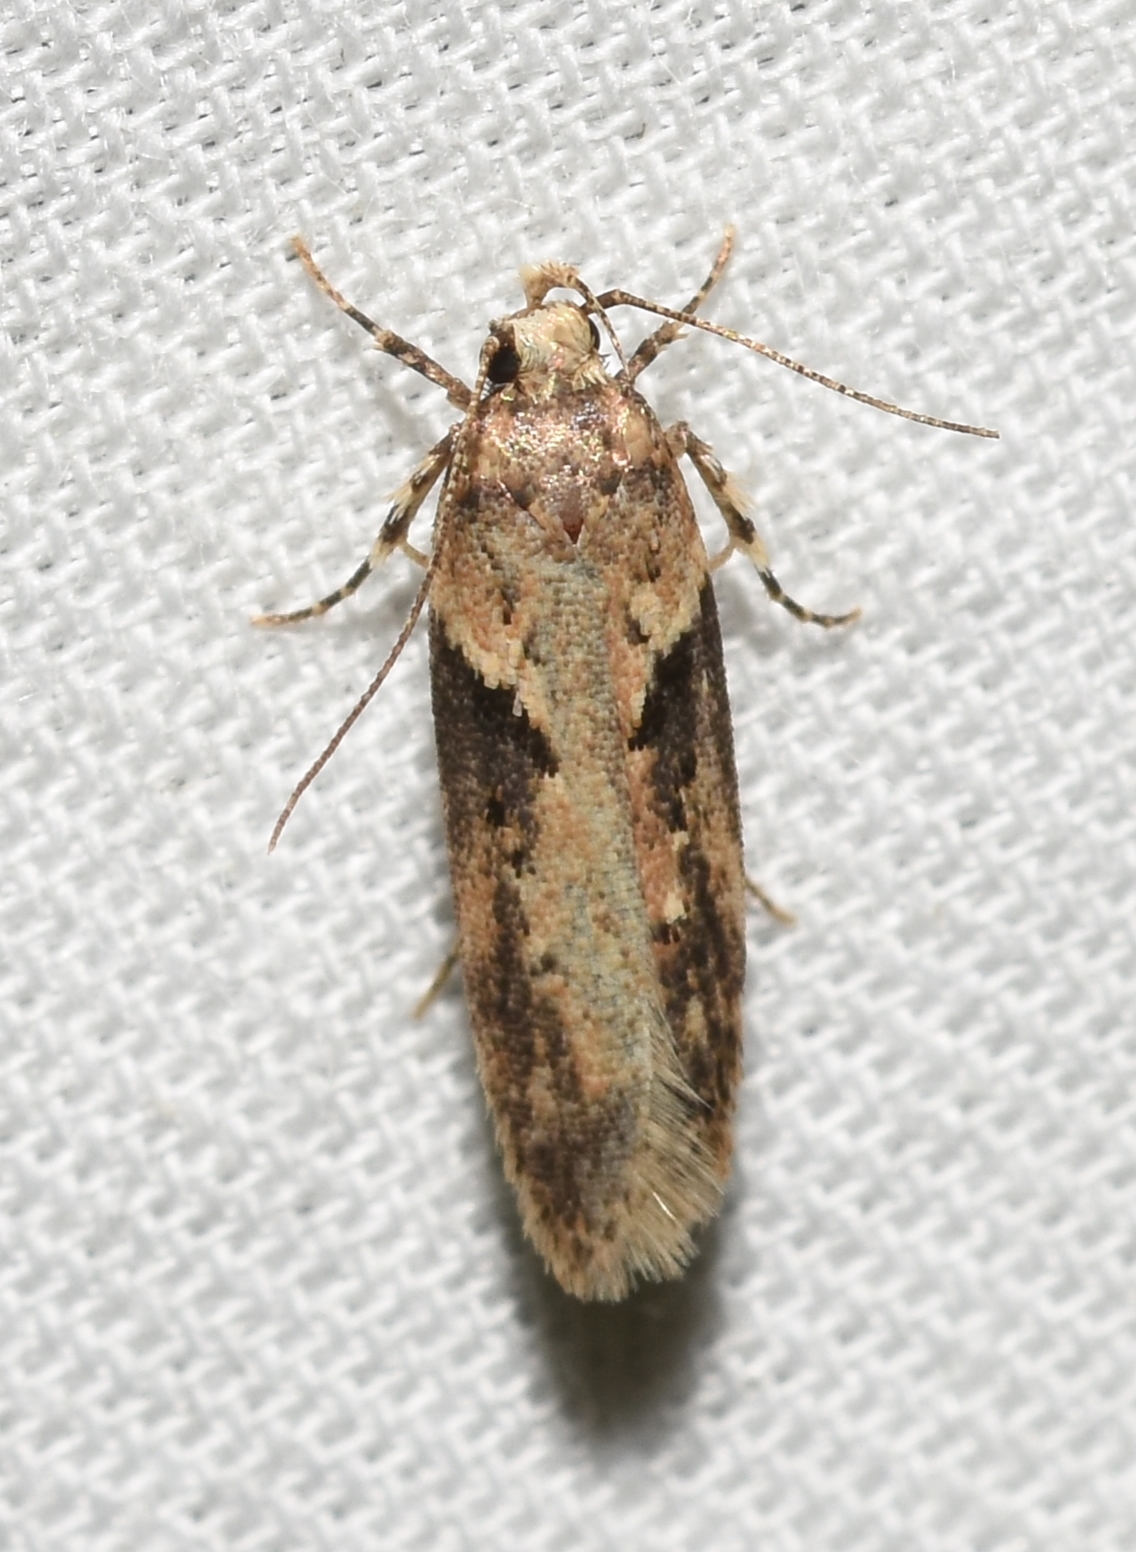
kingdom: Animalia
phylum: Arthropoda
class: Insecta
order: Lepidoptera
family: Gelechiidae
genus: Chionodes
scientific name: Chionodes mediofuscella
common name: Black-smudged chionodes moth
